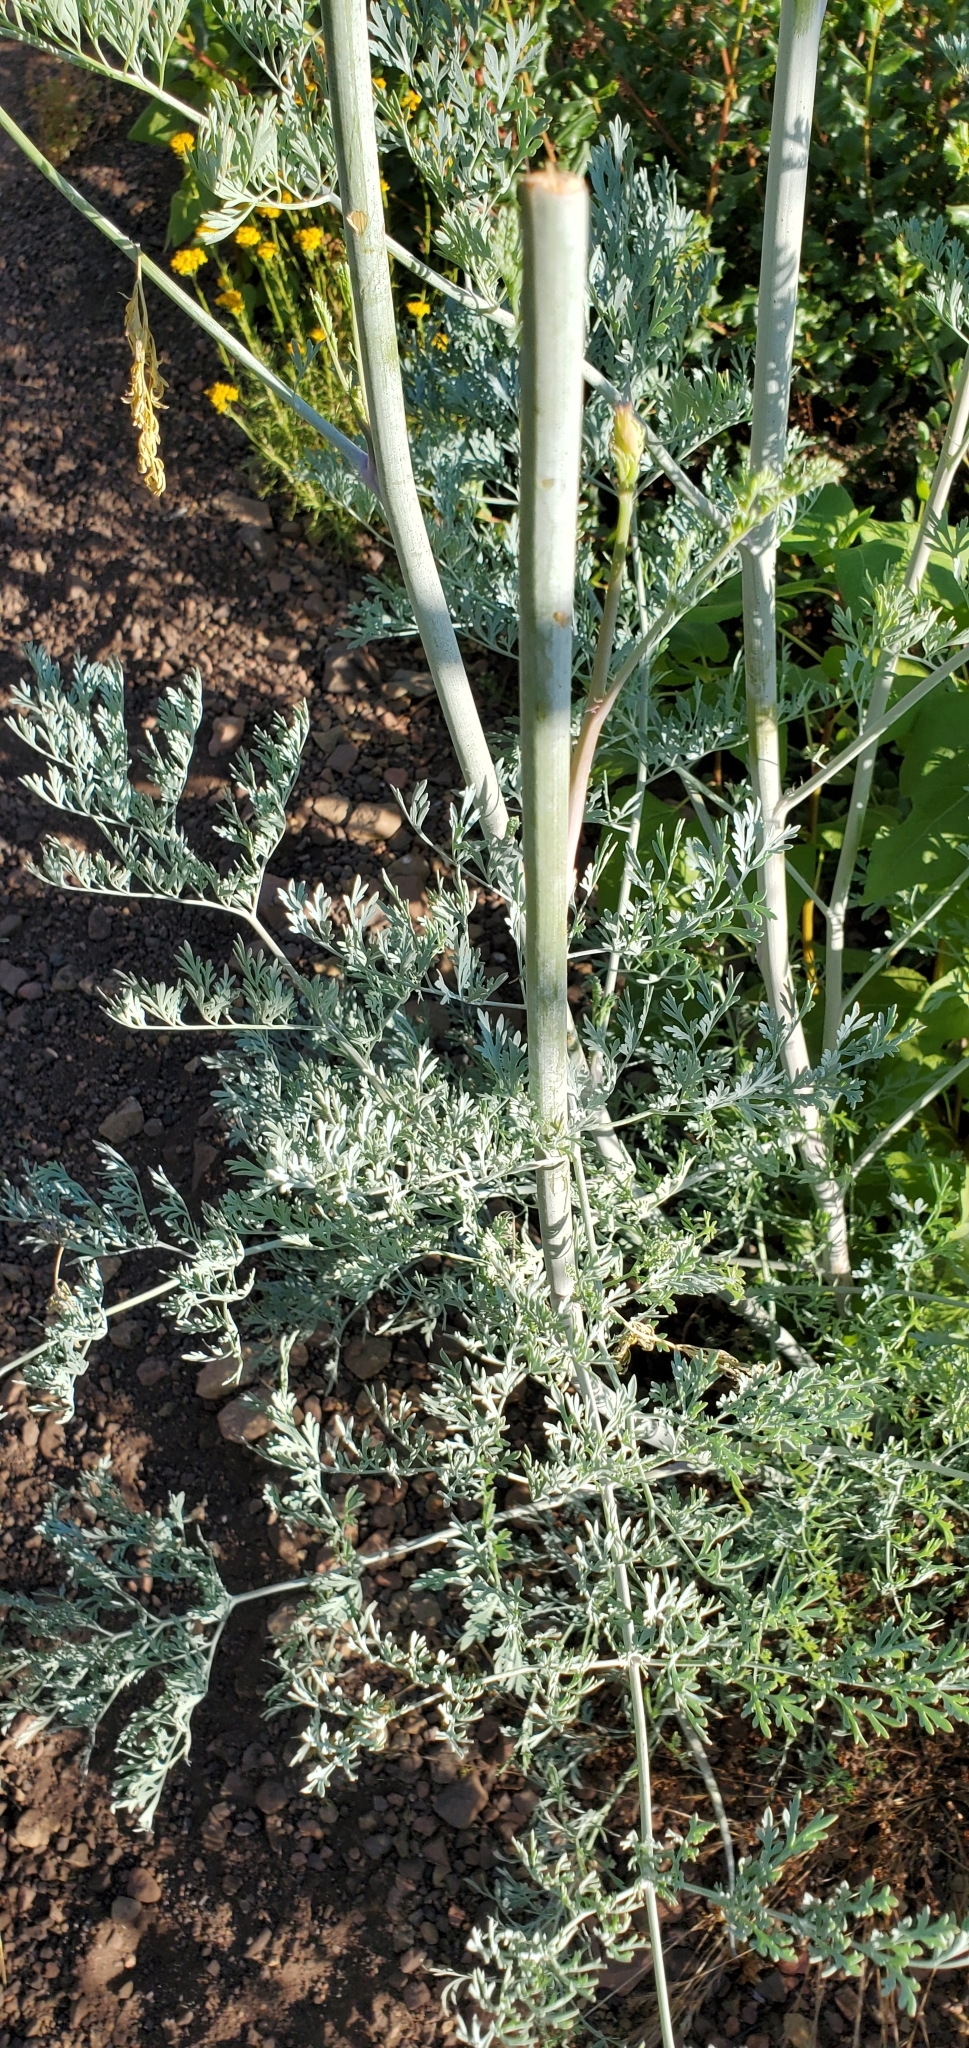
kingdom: Plantae
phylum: Tracheophyta
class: Magnoliopsida
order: Ranunculales
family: Papaveraceae
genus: Ehrendorferia
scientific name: Ehrendorferia ochroleuca
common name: White eardrops
